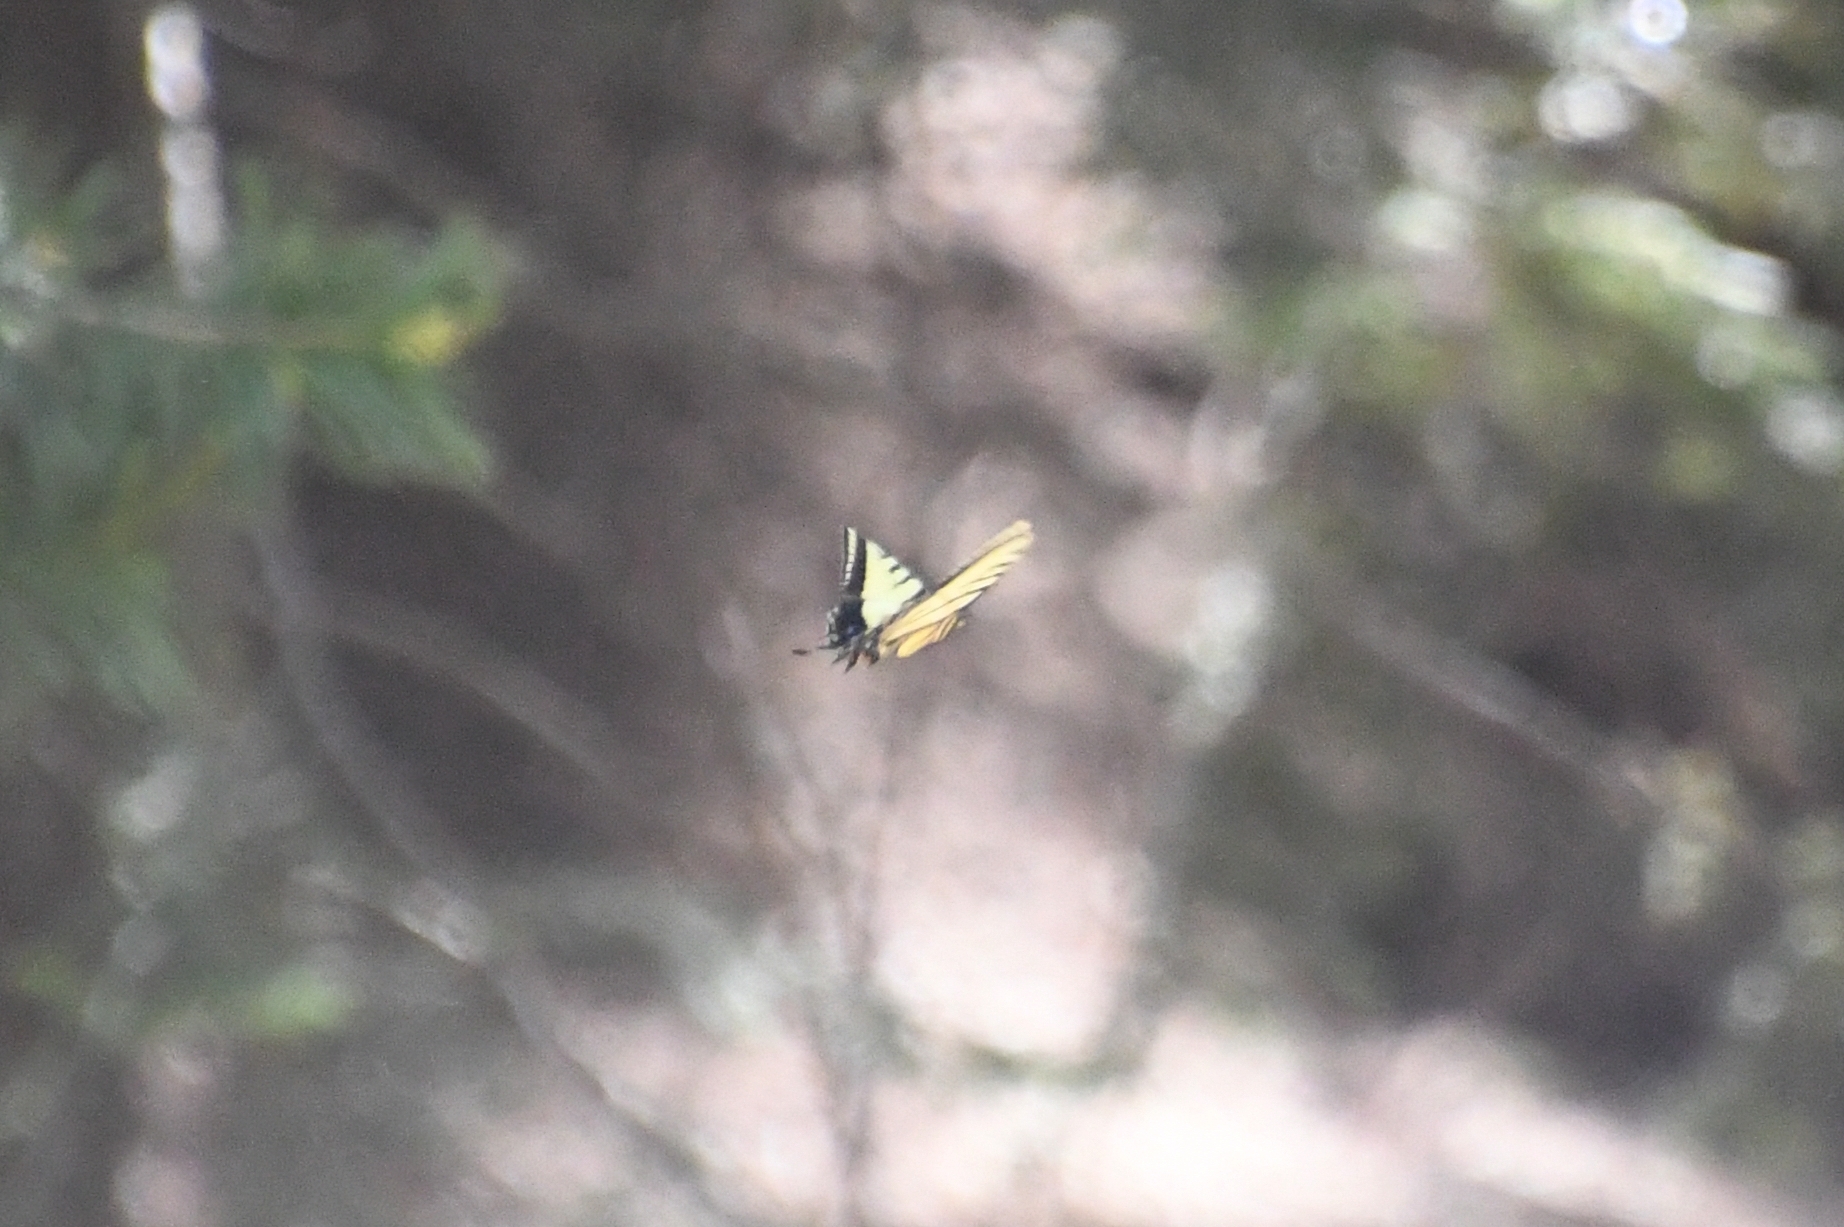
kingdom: Animalia
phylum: Arthropoda
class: Insecta
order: Lepidoptera
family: Papilionidae
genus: Papilio
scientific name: Papilio multicaudata
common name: Two-tailed tiger swallowtail
